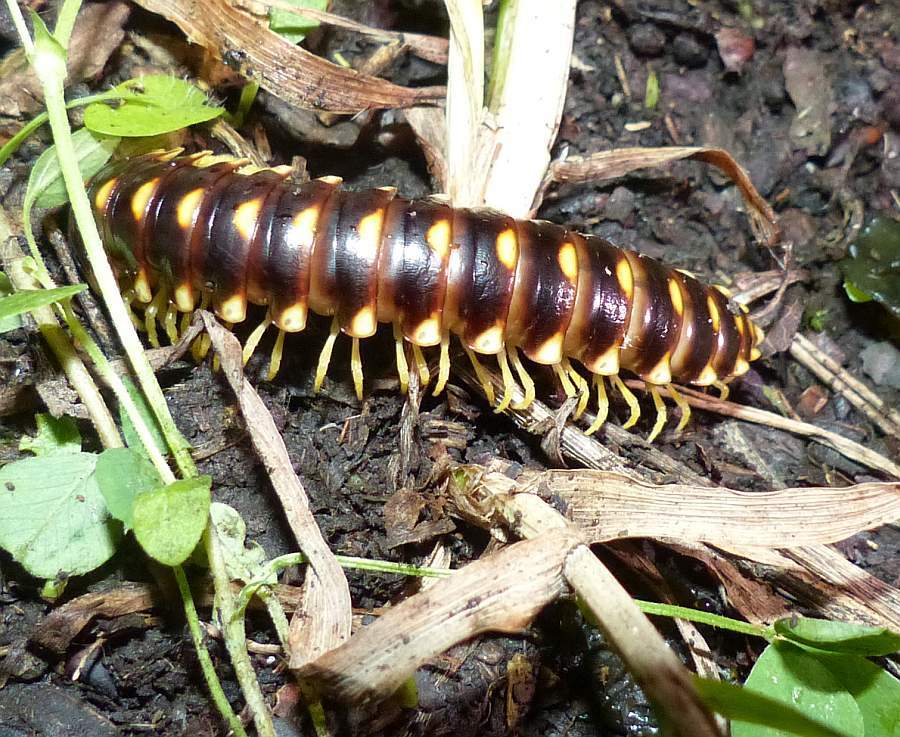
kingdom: Animalia
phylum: Arthropoda
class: Diplopoda
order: Polydesmida
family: Xystodesmidae
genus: Rudiloria
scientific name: Rudiloria trimaculata
